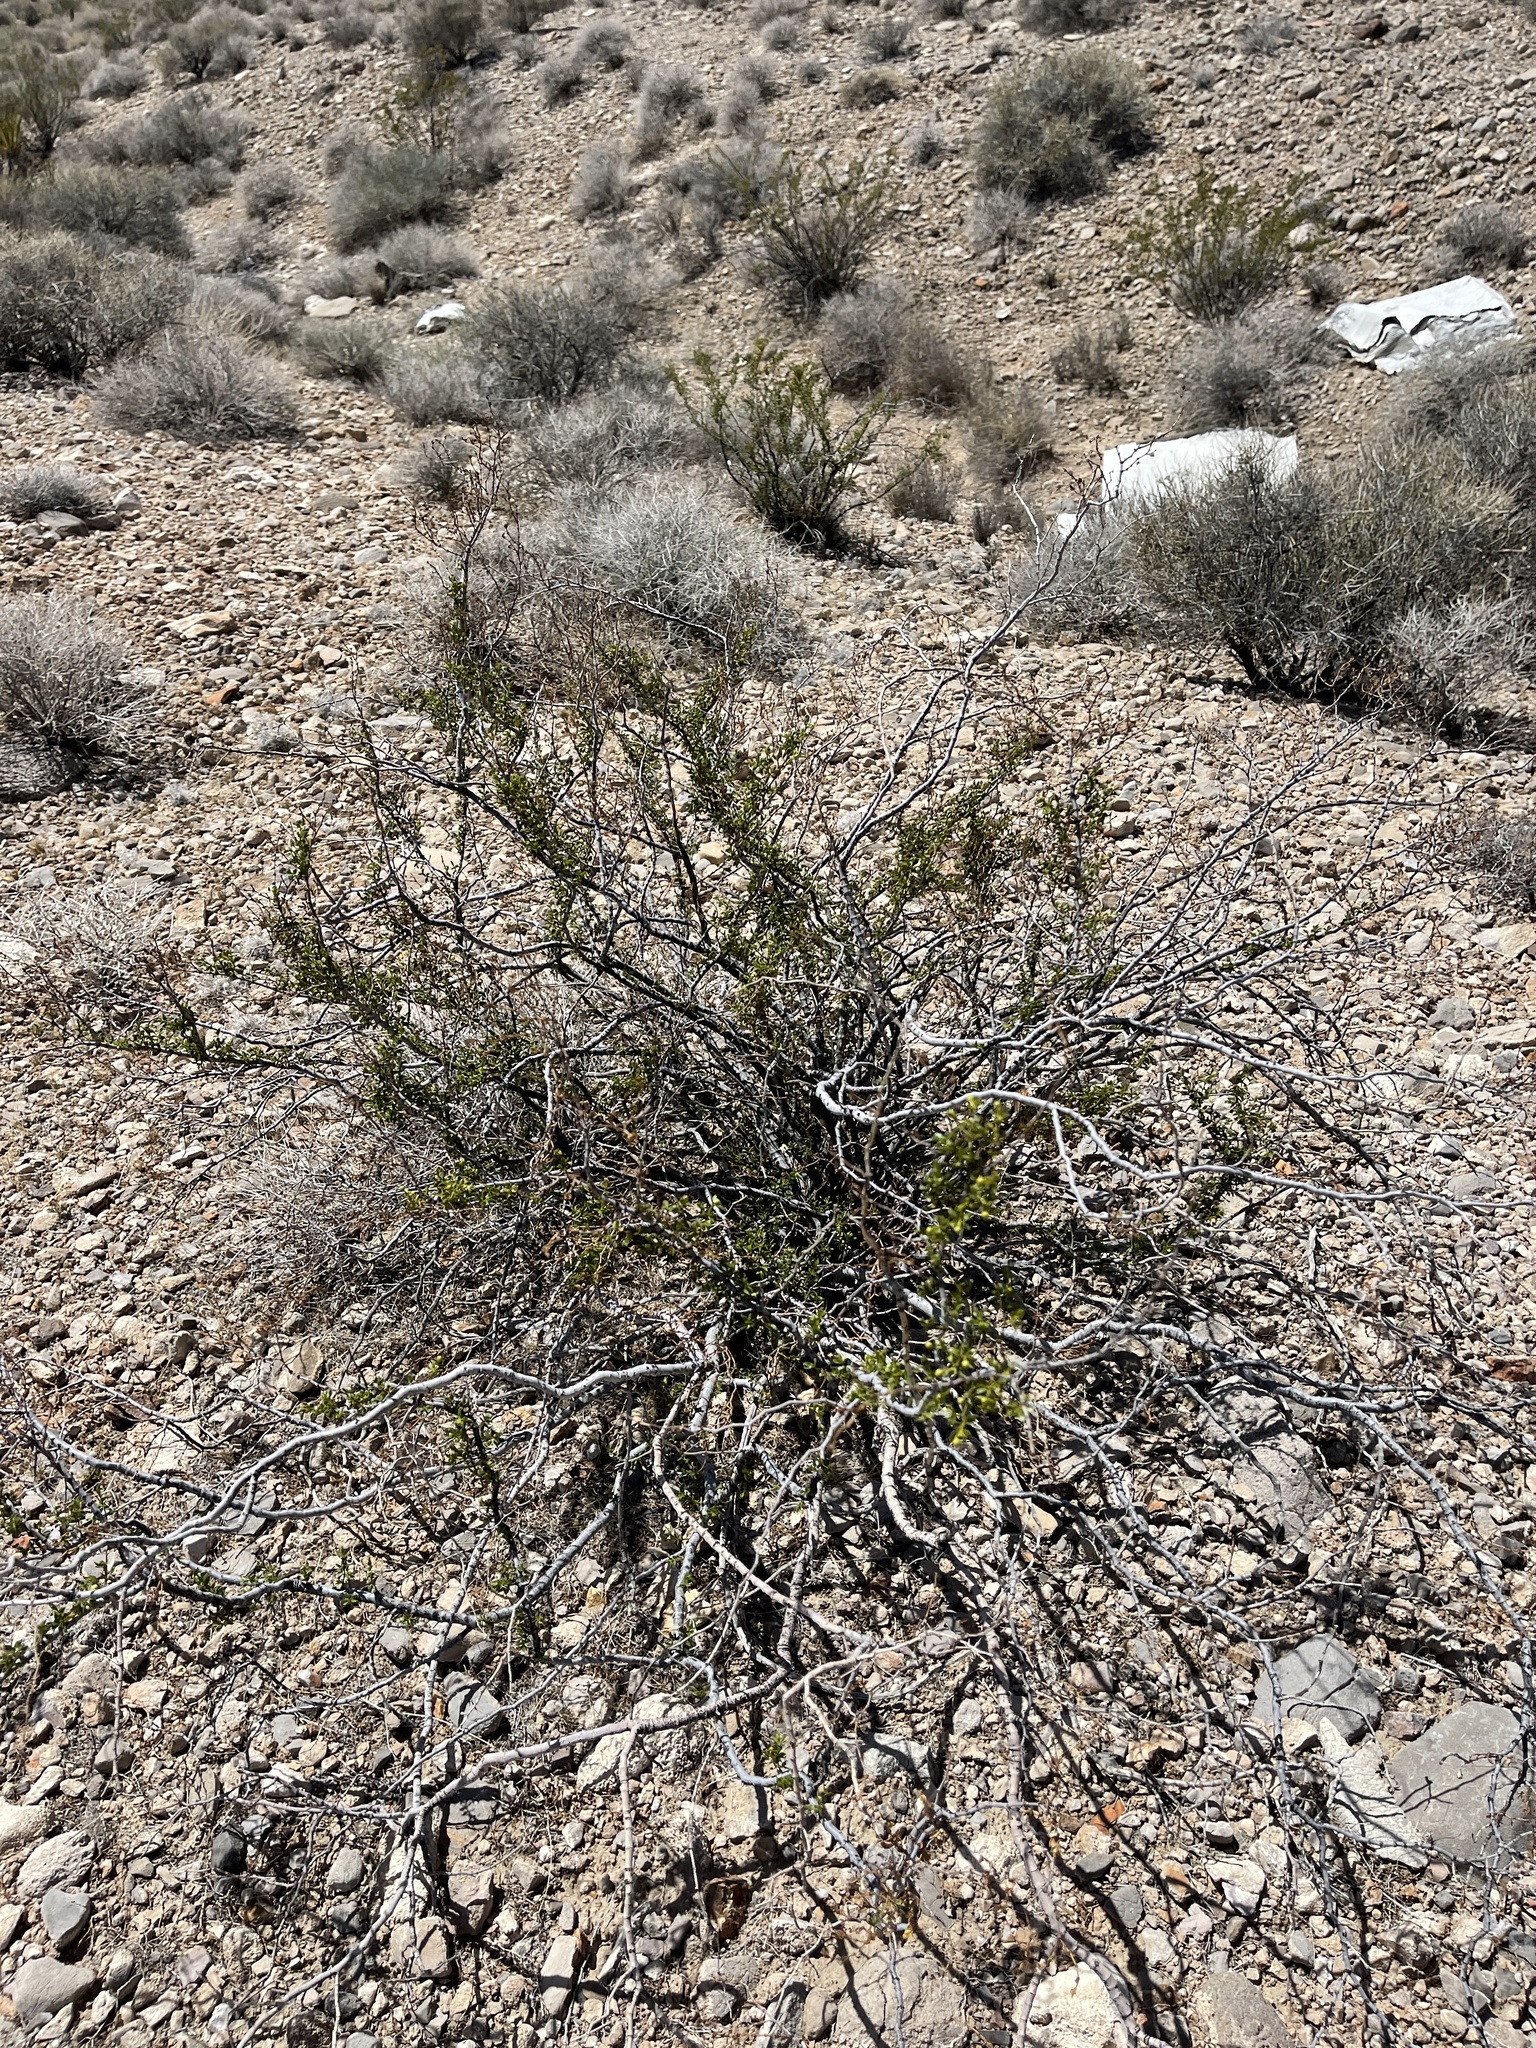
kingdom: Plantae
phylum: Tracheophyta
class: Magnoliopsida
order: Zygophyllales
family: Zygophyllaceae
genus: Larrea
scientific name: Larrea tridentata
